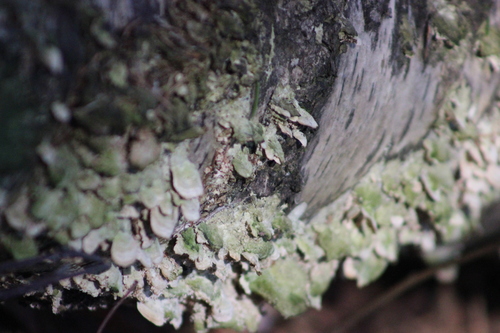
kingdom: Fungi
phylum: Basidiomycota
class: Agaricomycetes
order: Hymenochaetales
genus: Trichaptum
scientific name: Trichaptum biforme
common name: Violet-toothed polypore
